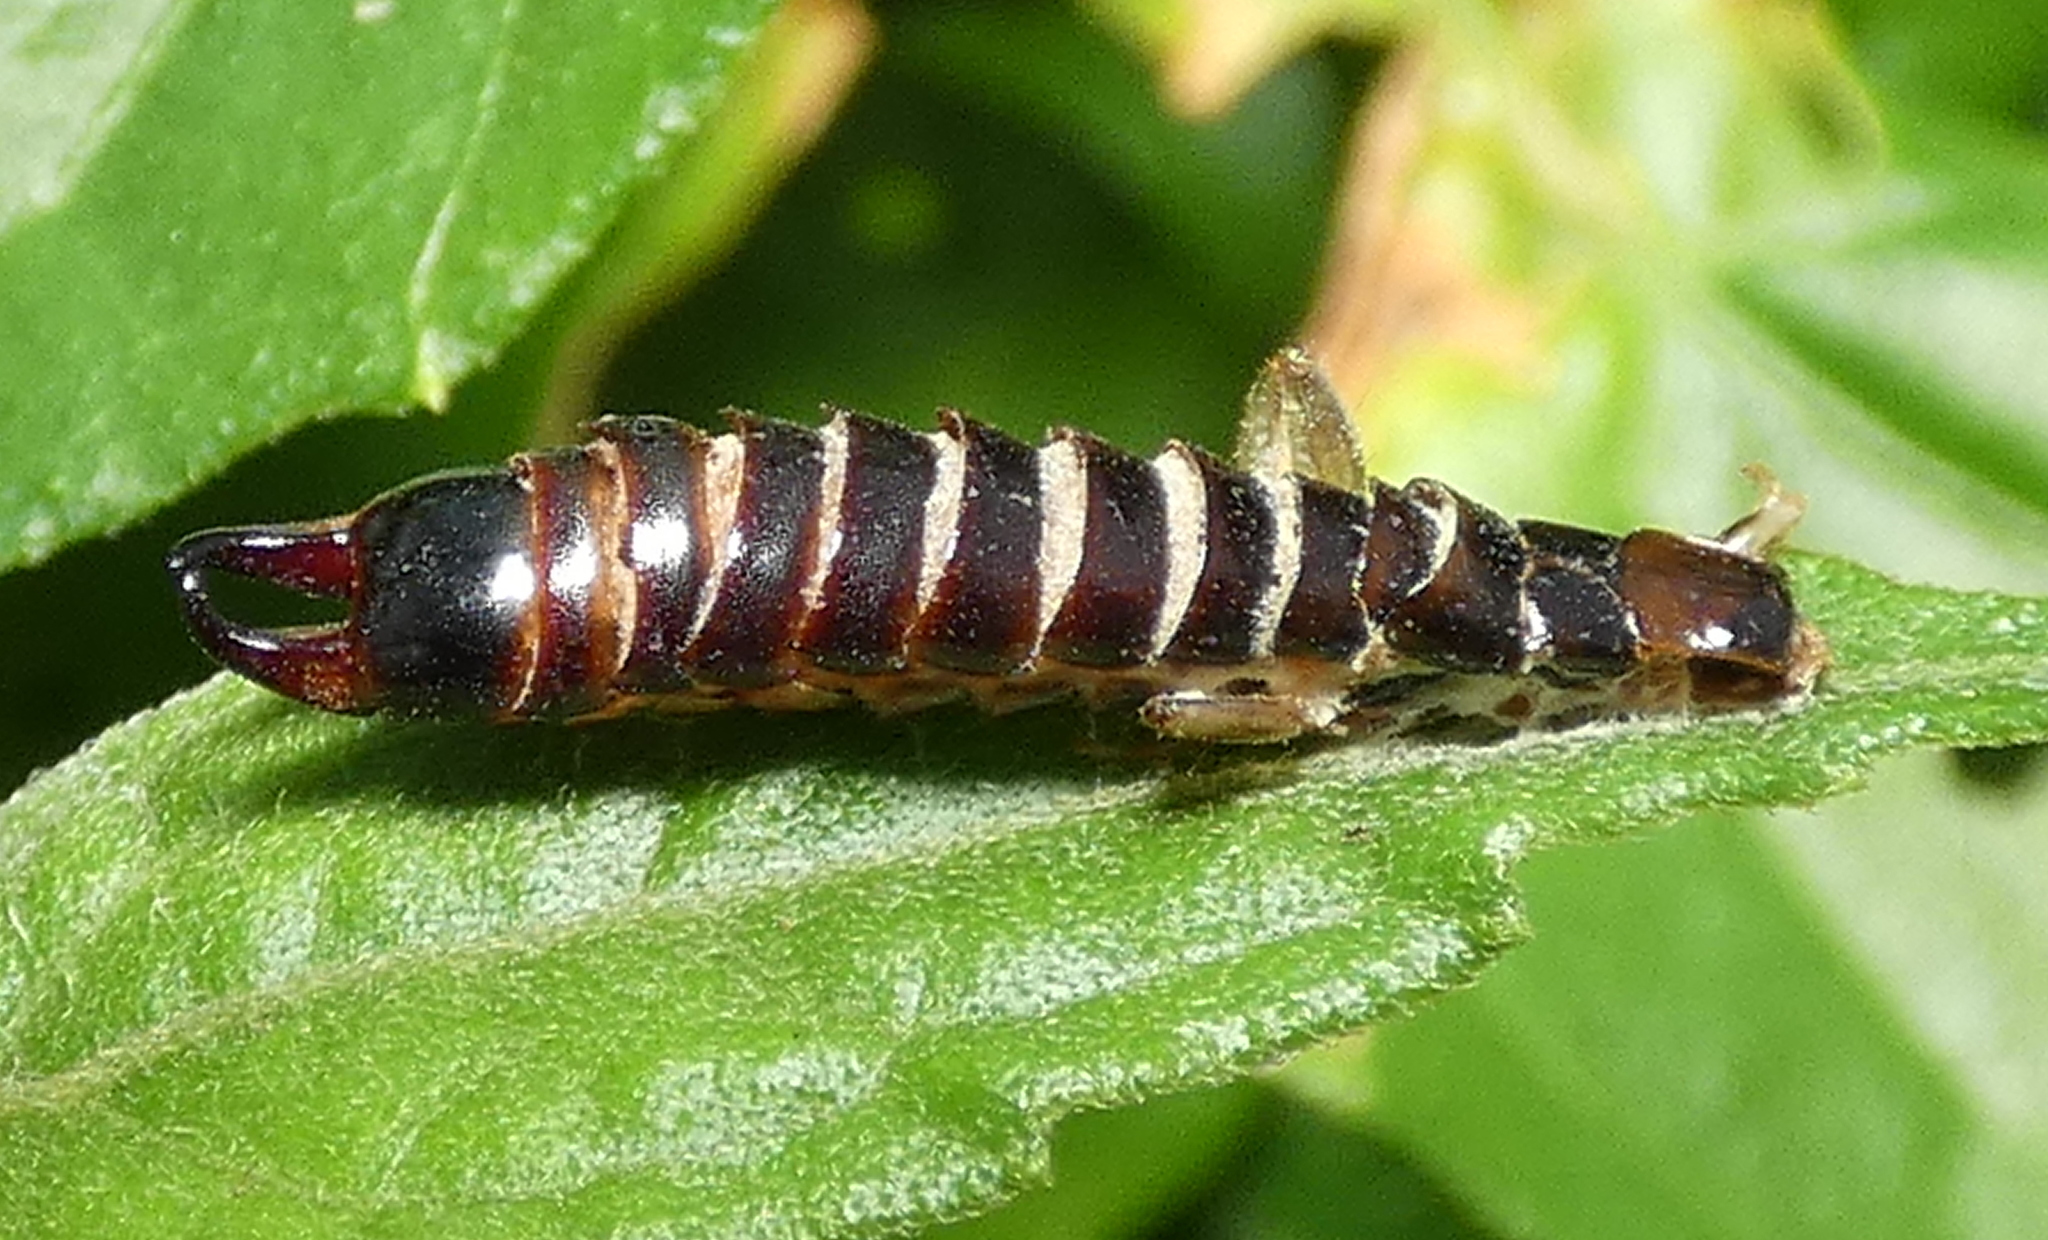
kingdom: Animalia
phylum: Arthropoda
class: Insecta
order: Dermaptera
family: Anisolabididae
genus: Euborellia
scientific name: Euborellia janeirensis
